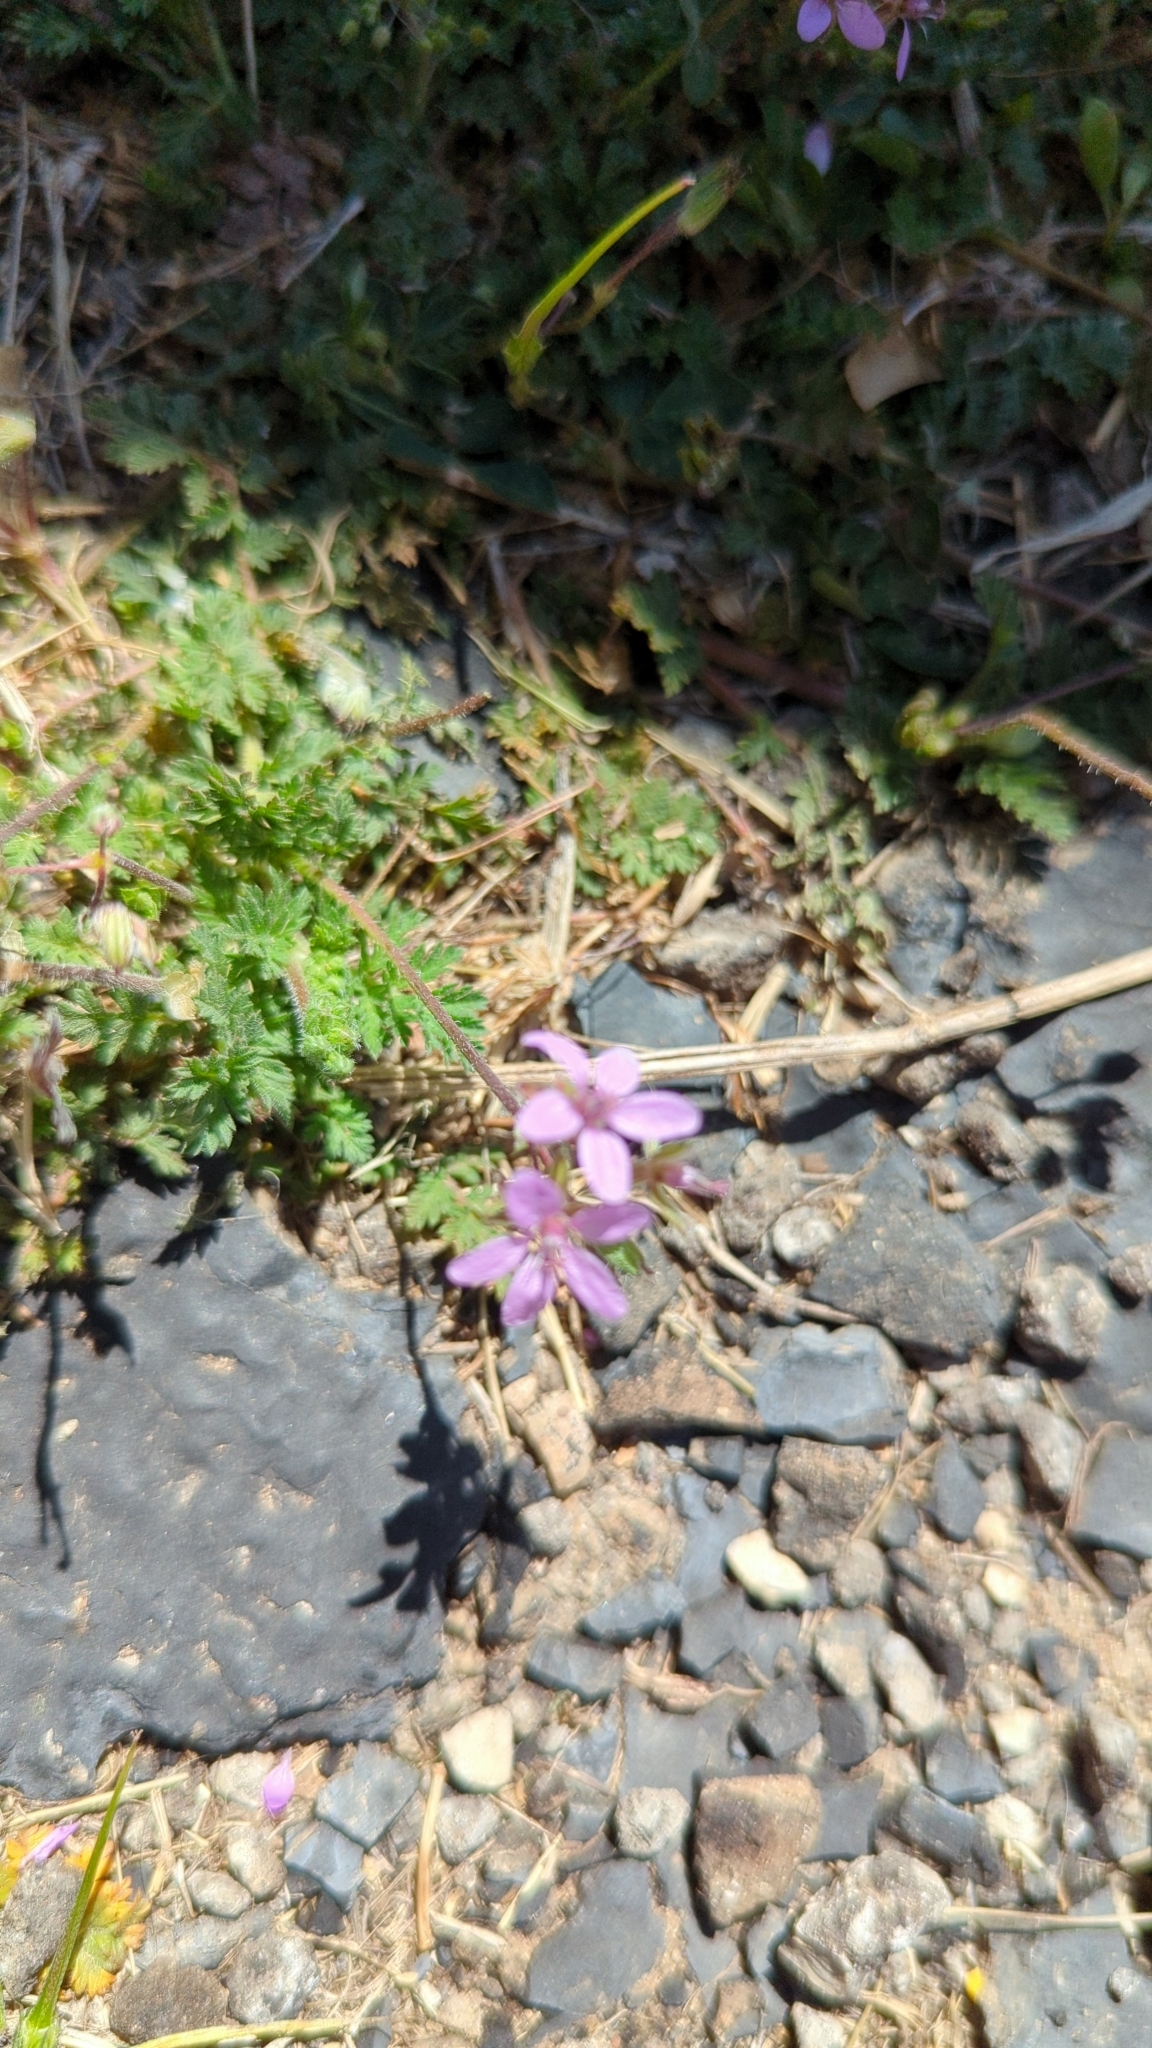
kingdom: Plantae
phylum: Tracheophyta
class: Magnoliopsida
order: Geraniales
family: Geraniaceae
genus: Erodium
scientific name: Erodium cicutarium
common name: Common stork's-bill
